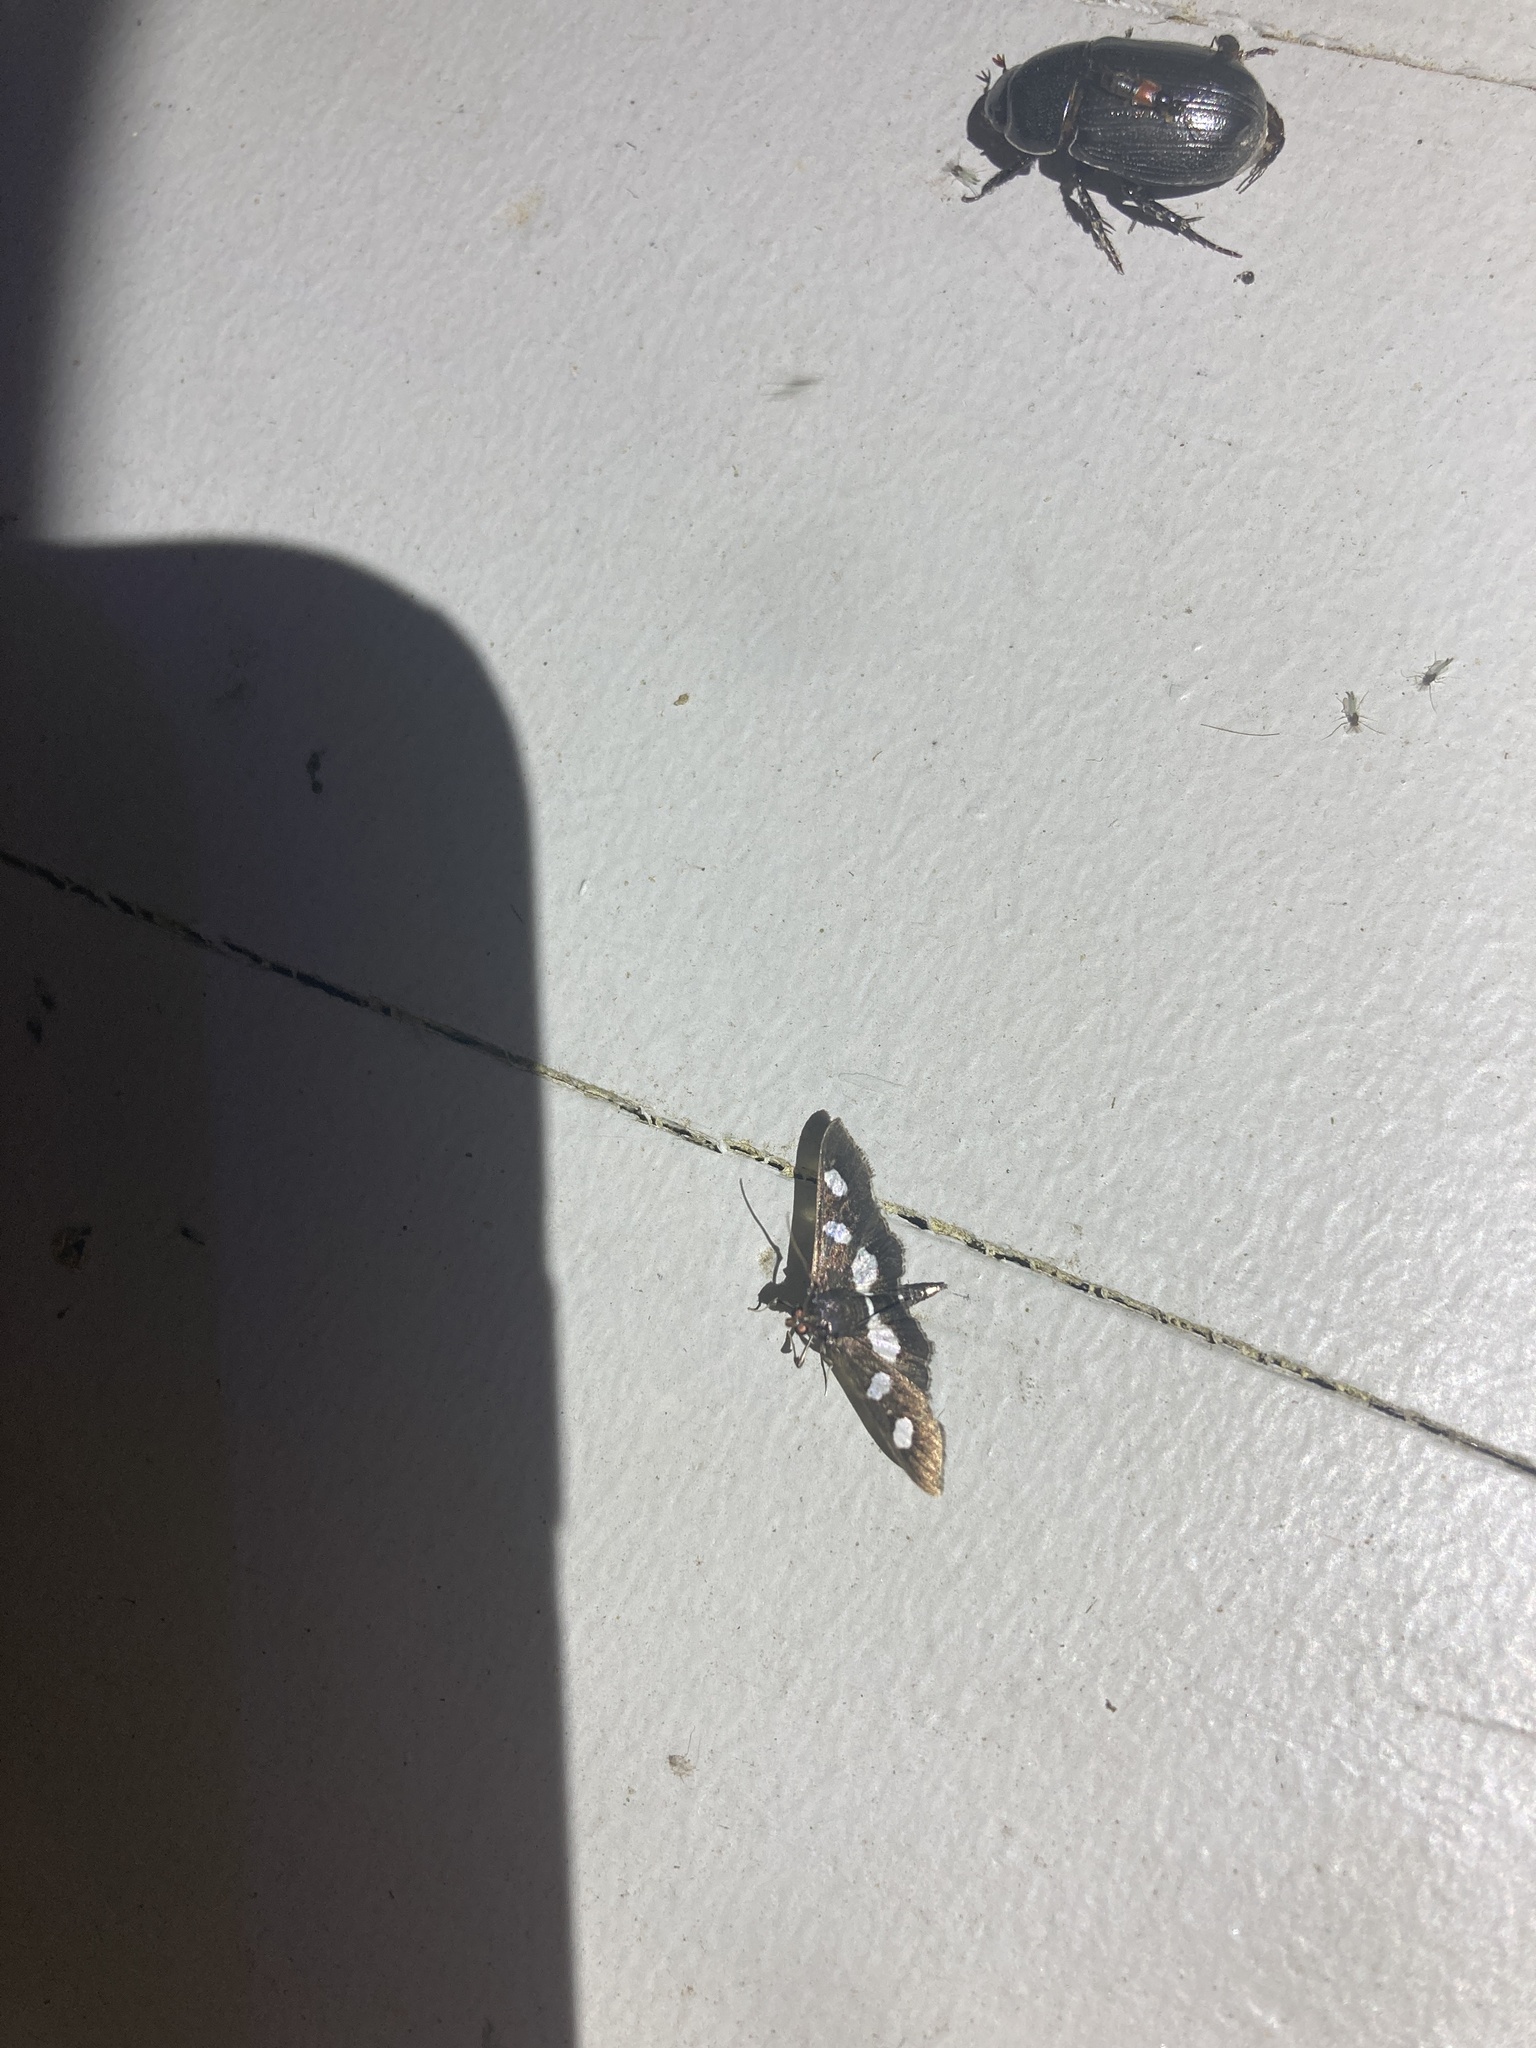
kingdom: Animalia
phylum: Arthropoda
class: Insecta
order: Lepidoptera
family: Crambidae
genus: Desmia
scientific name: Desmia
